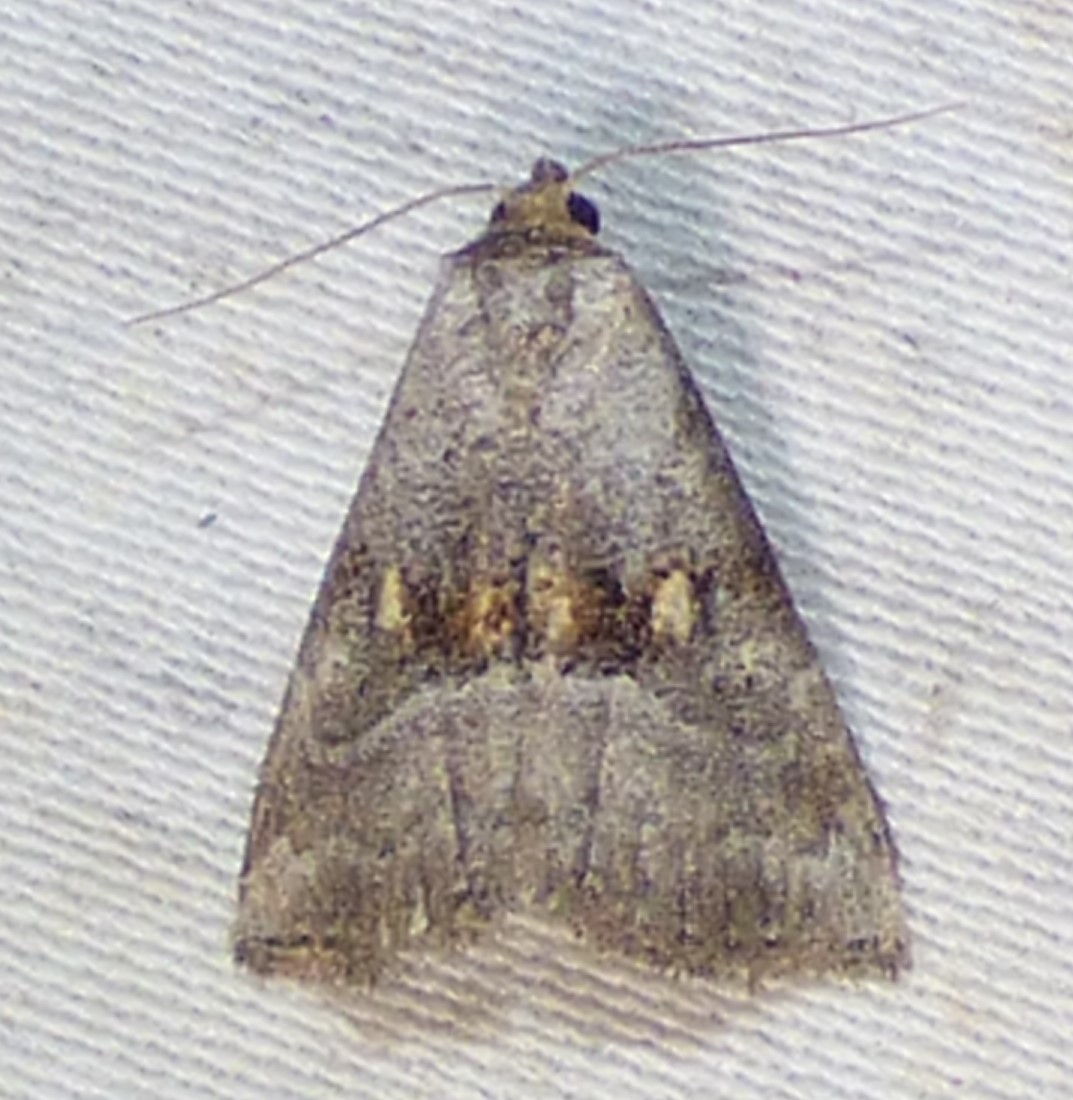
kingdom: Animalia
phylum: Arthropoda
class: Insecta
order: Lepidoptera
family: Erebidae
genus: Hyperstrotia
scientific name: Hyperstrotia flaviguttata
